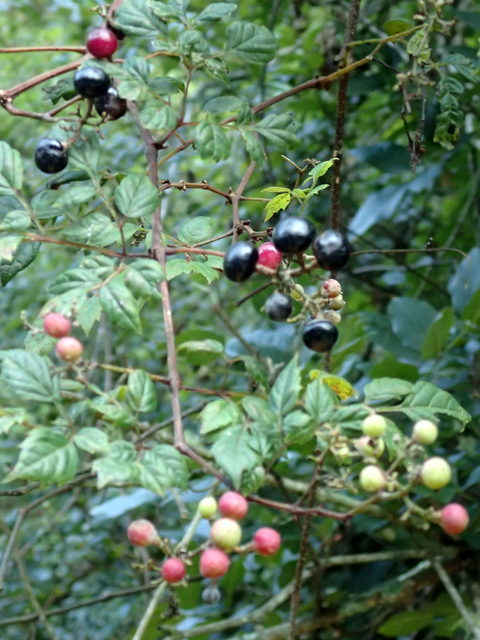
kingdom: Plantae
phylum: Tracheophyta
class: Magnoliopsida
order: Vitales
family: Vitaceae
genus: Nekemias
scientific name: Nekemias arborea
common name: Peppervine
